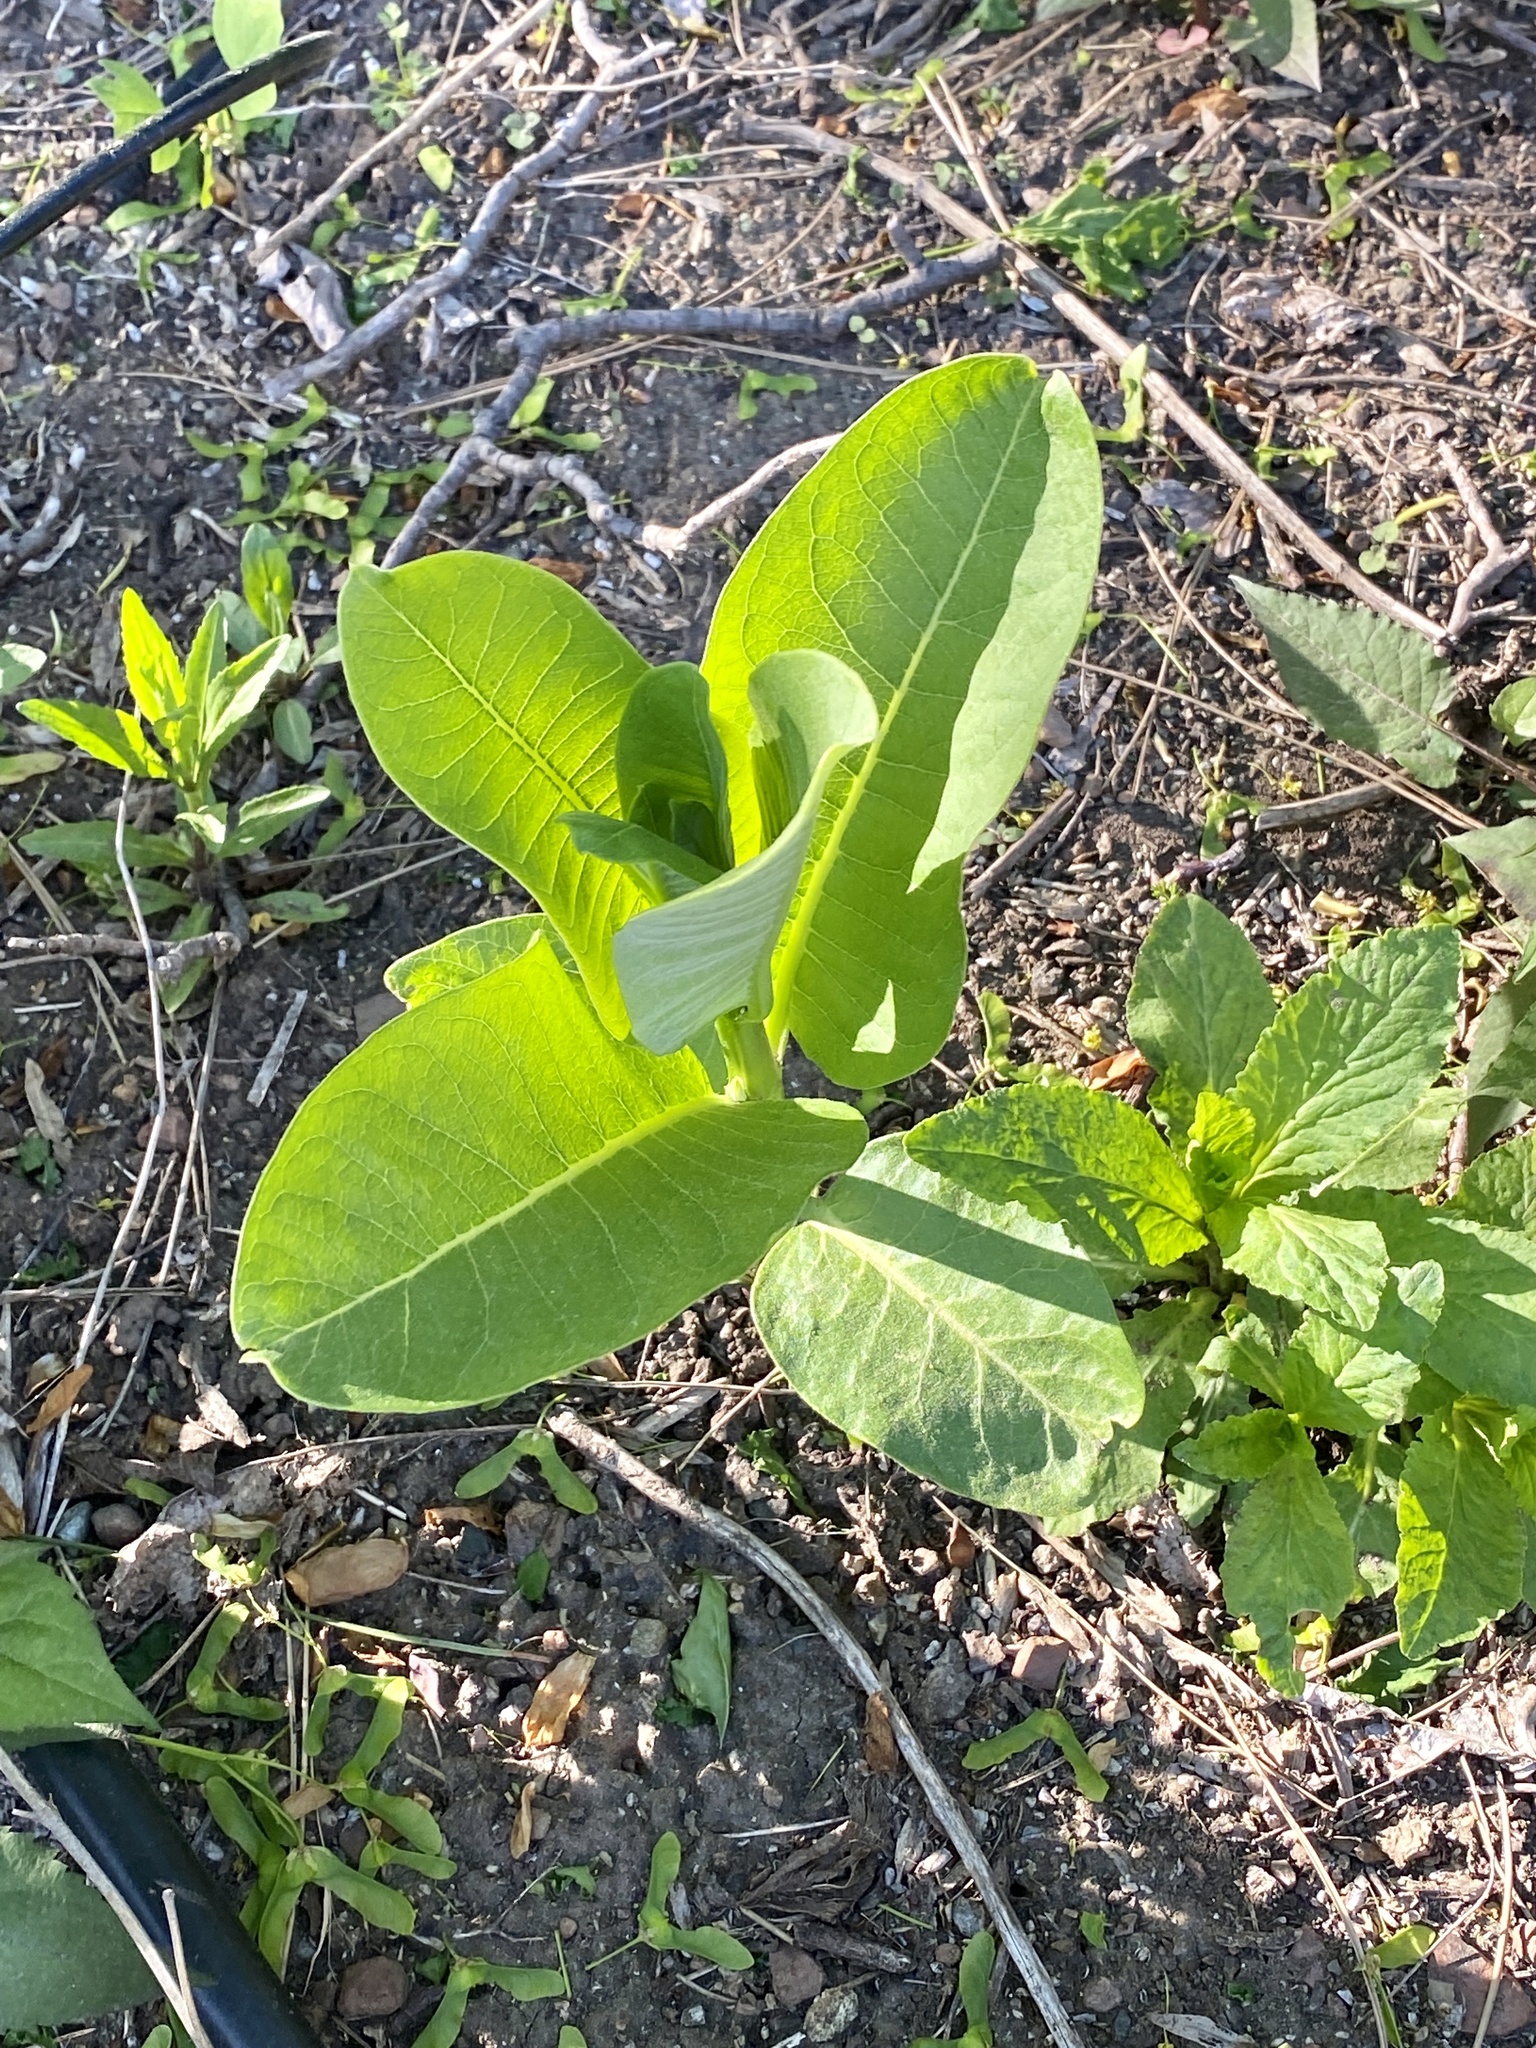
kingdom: Plantae
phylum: Tracheophyta
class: Magnoliopsida
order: Gentianales
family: Apocynaceae
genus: Asclepias
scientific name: Asclepias syriaca
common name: Common milkweed
